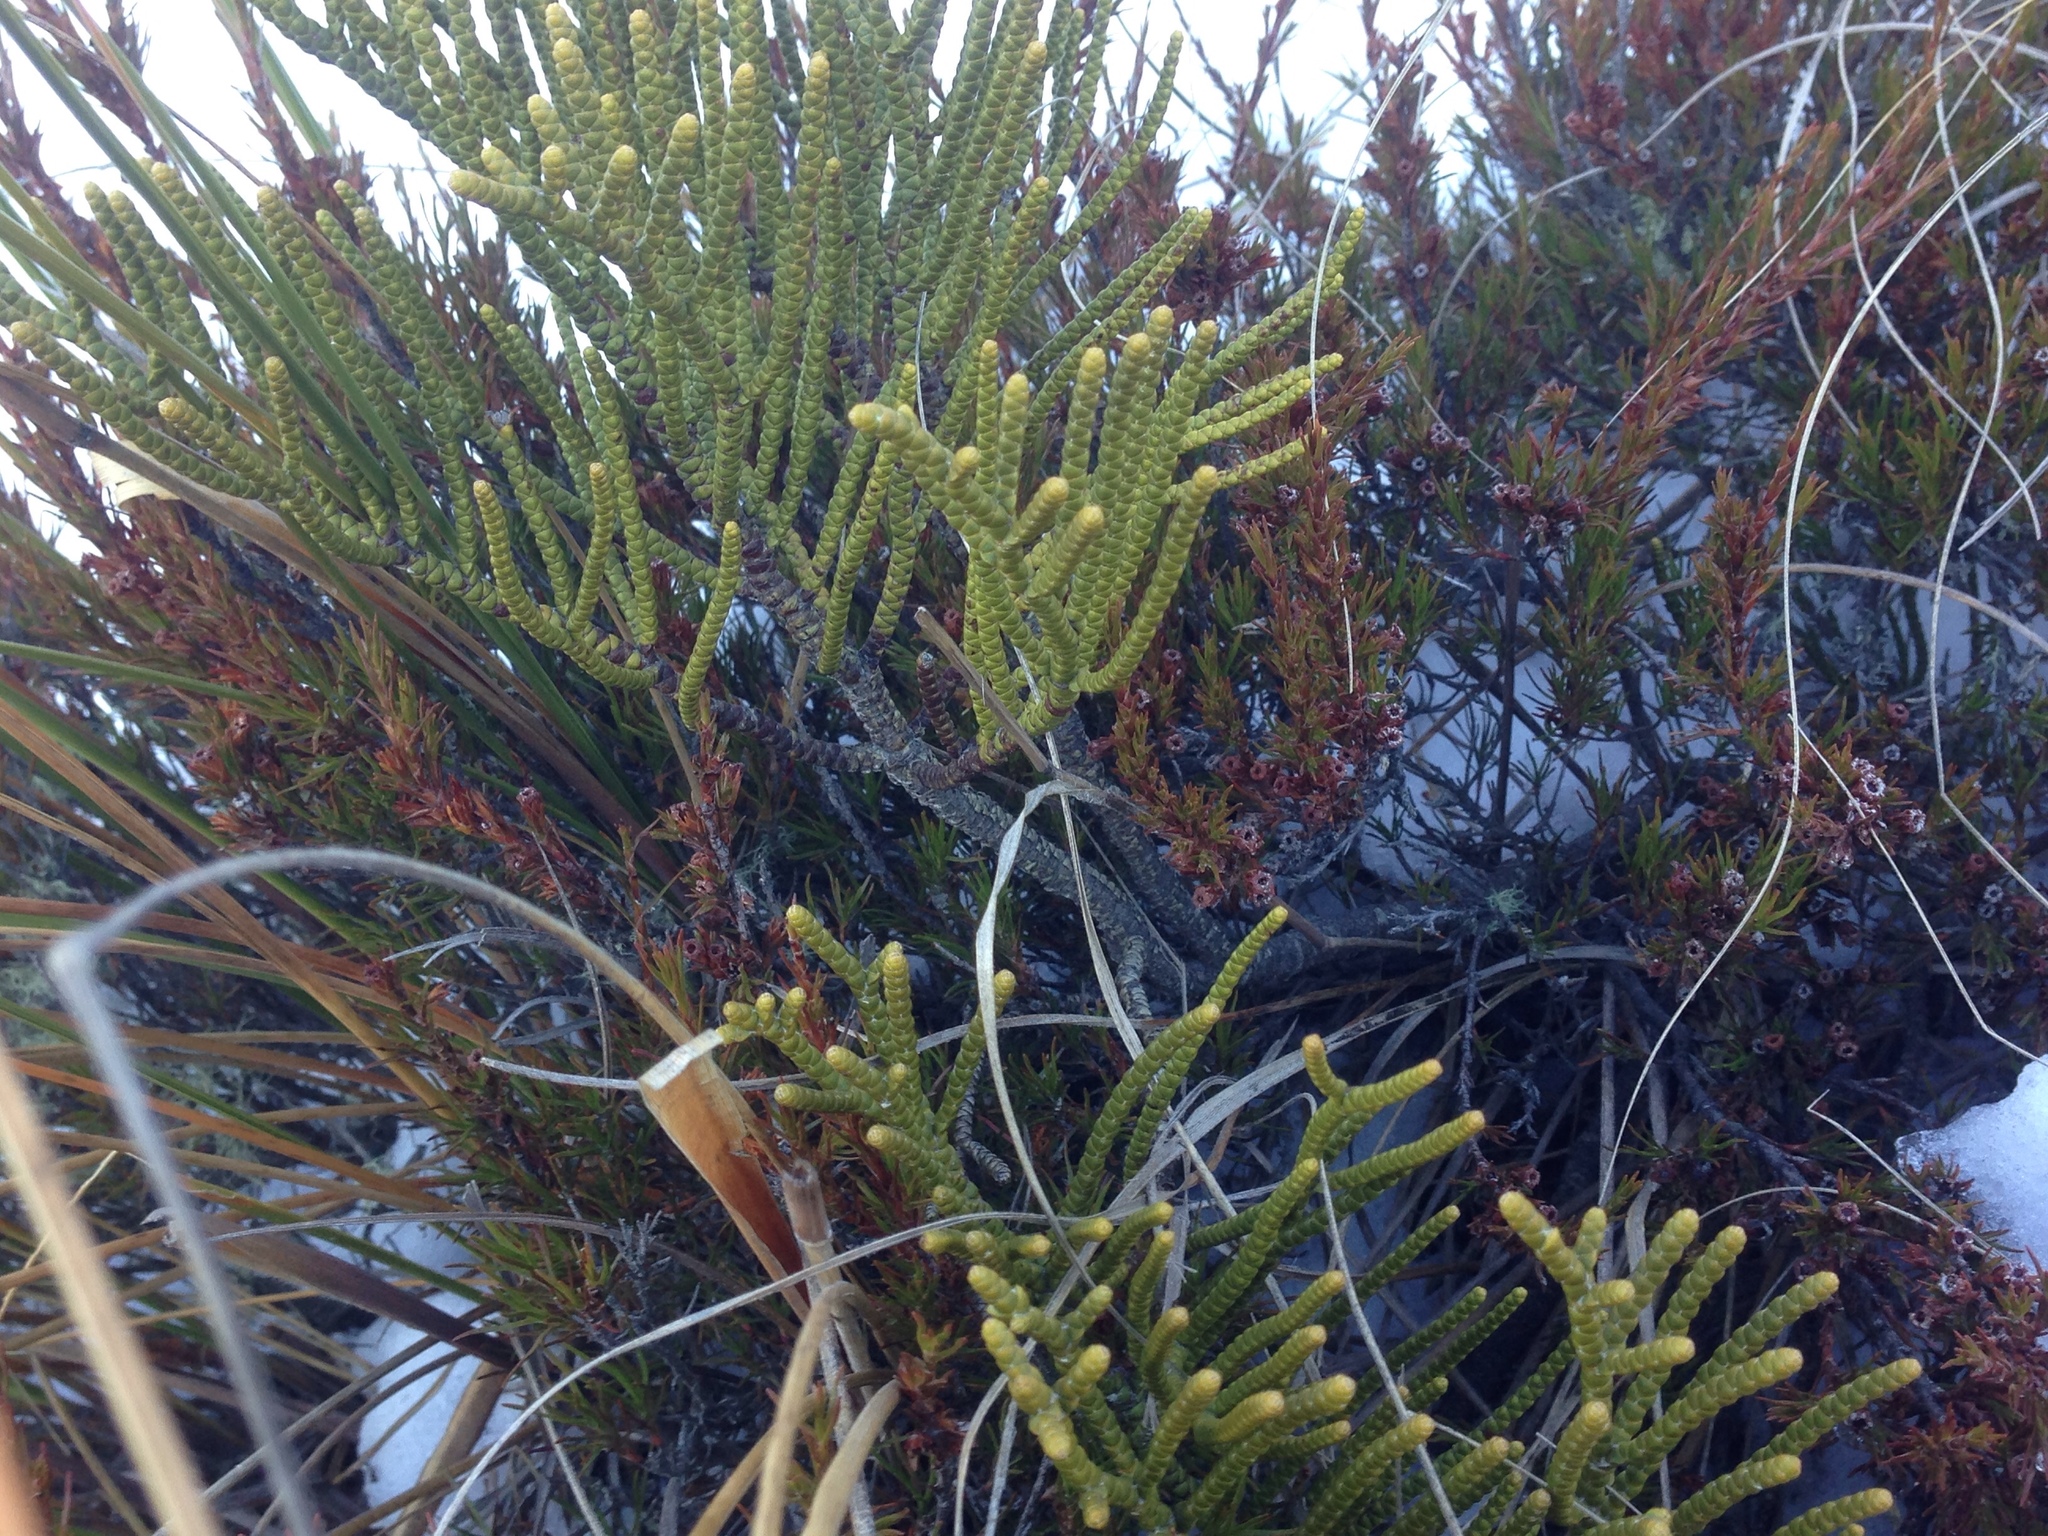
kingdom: Plantae
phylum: Tracheophyta
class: Magnoliopsida
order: Lamiales
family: Plantaginaceae
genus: Veronica
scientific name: Veronica hectorii
